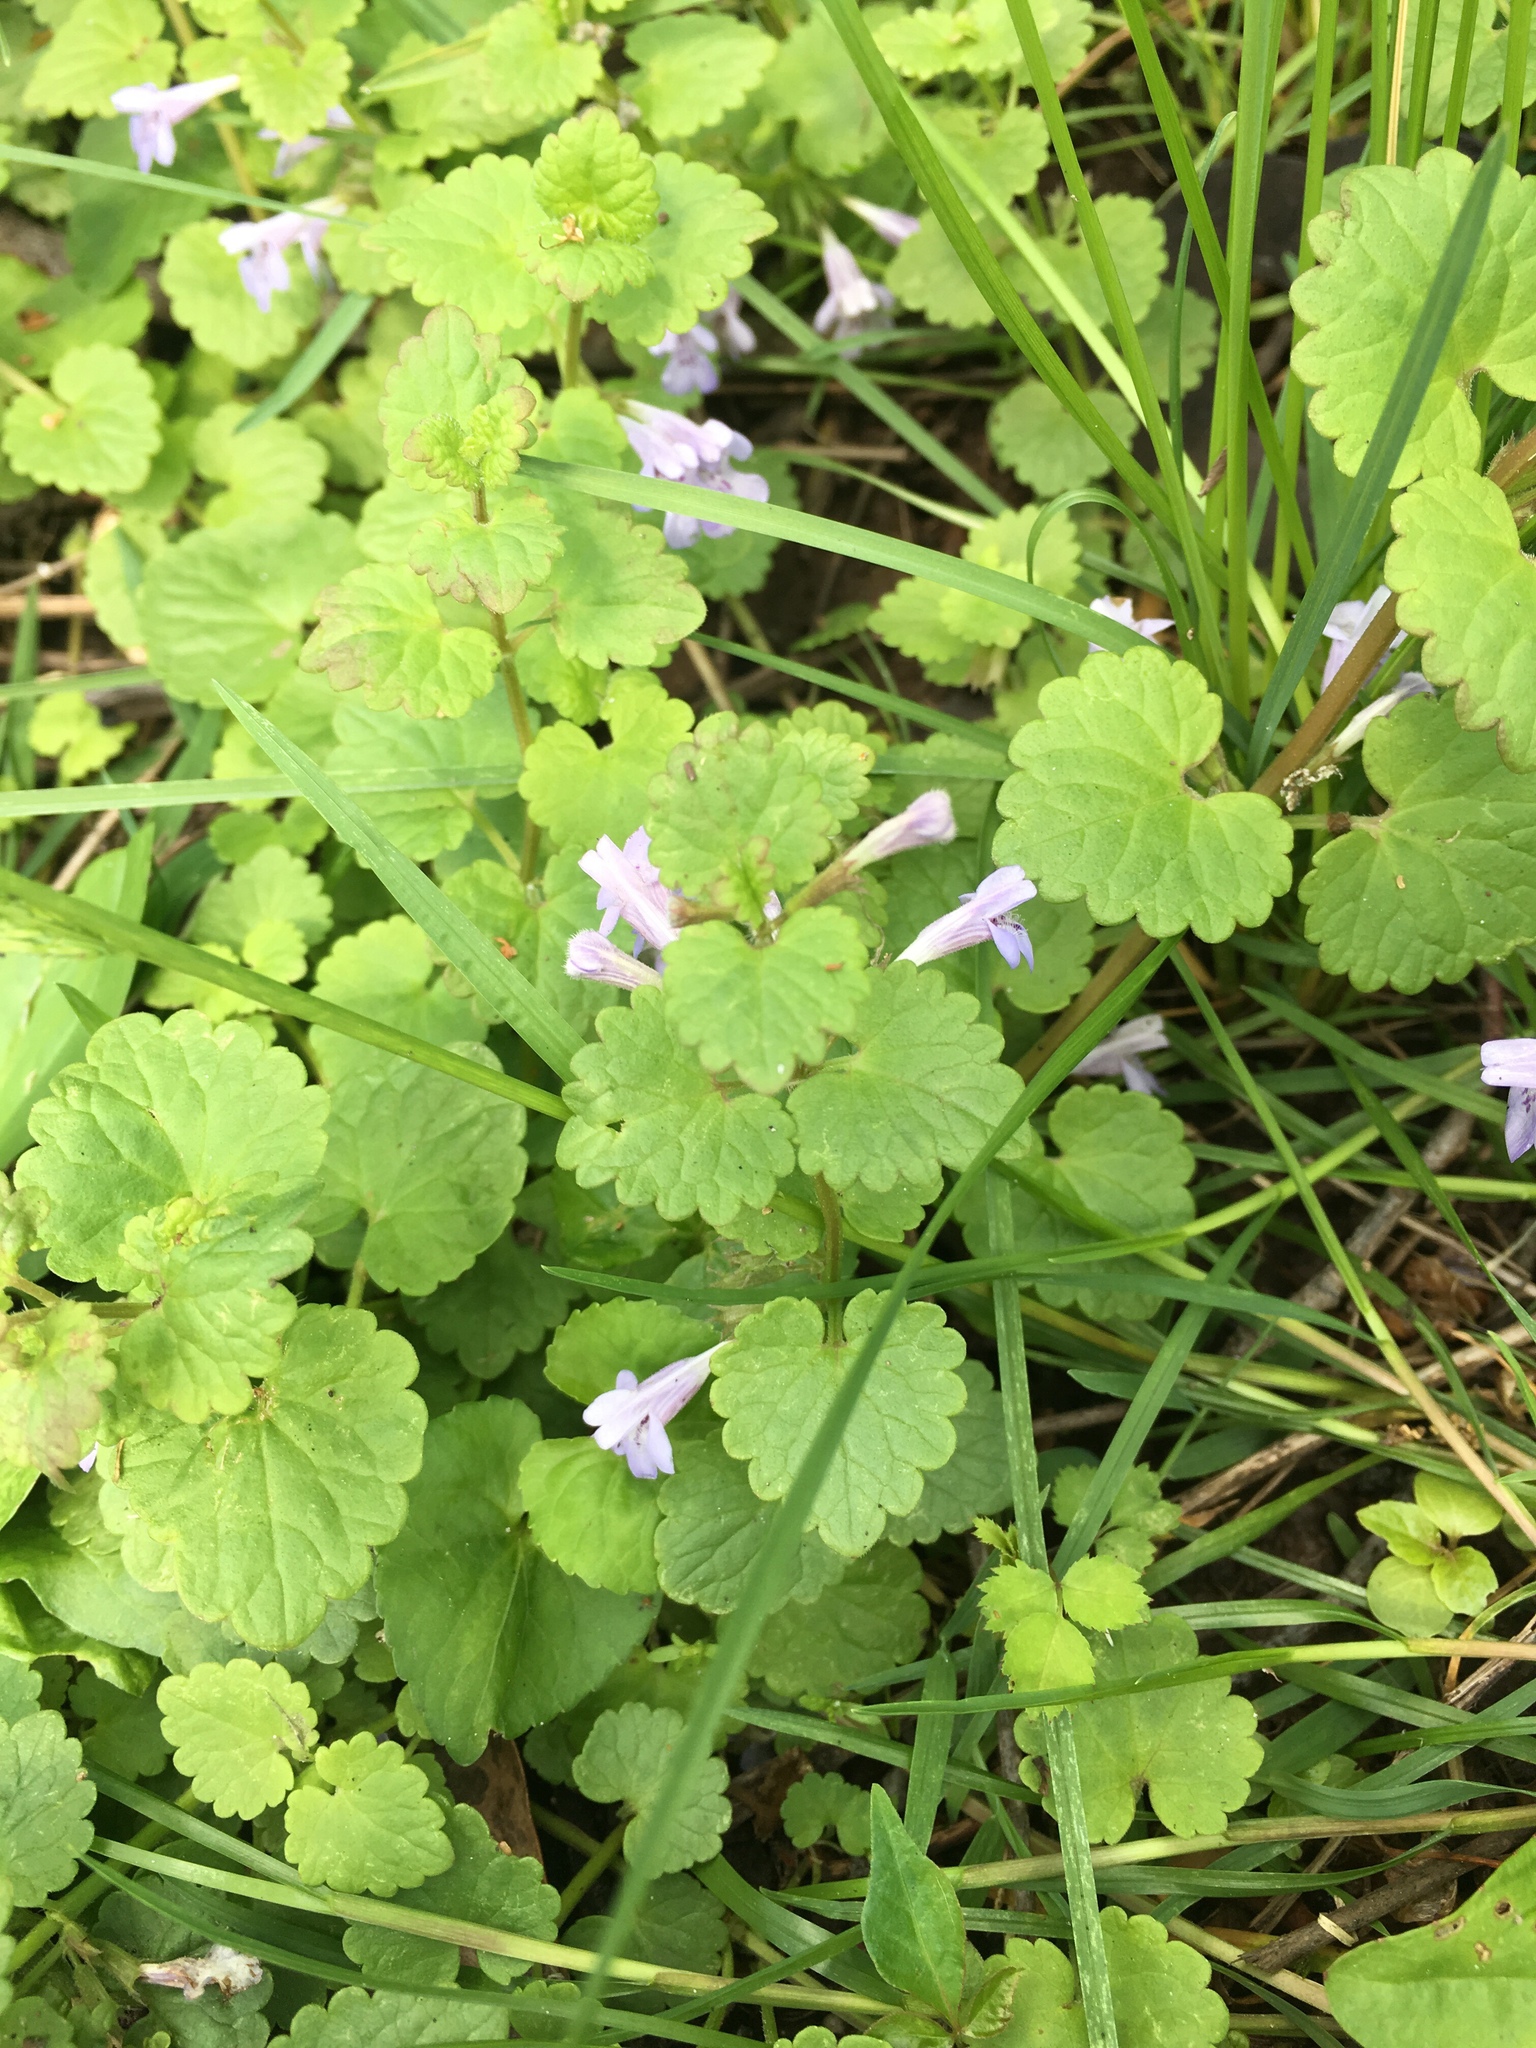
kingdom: Plantae
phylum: Tracheophyta
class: Magnoliopsida
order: Lamiales
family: Lamiaceae
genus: Glechoma
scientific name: Glechoma hederacea
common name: Ground ivy
